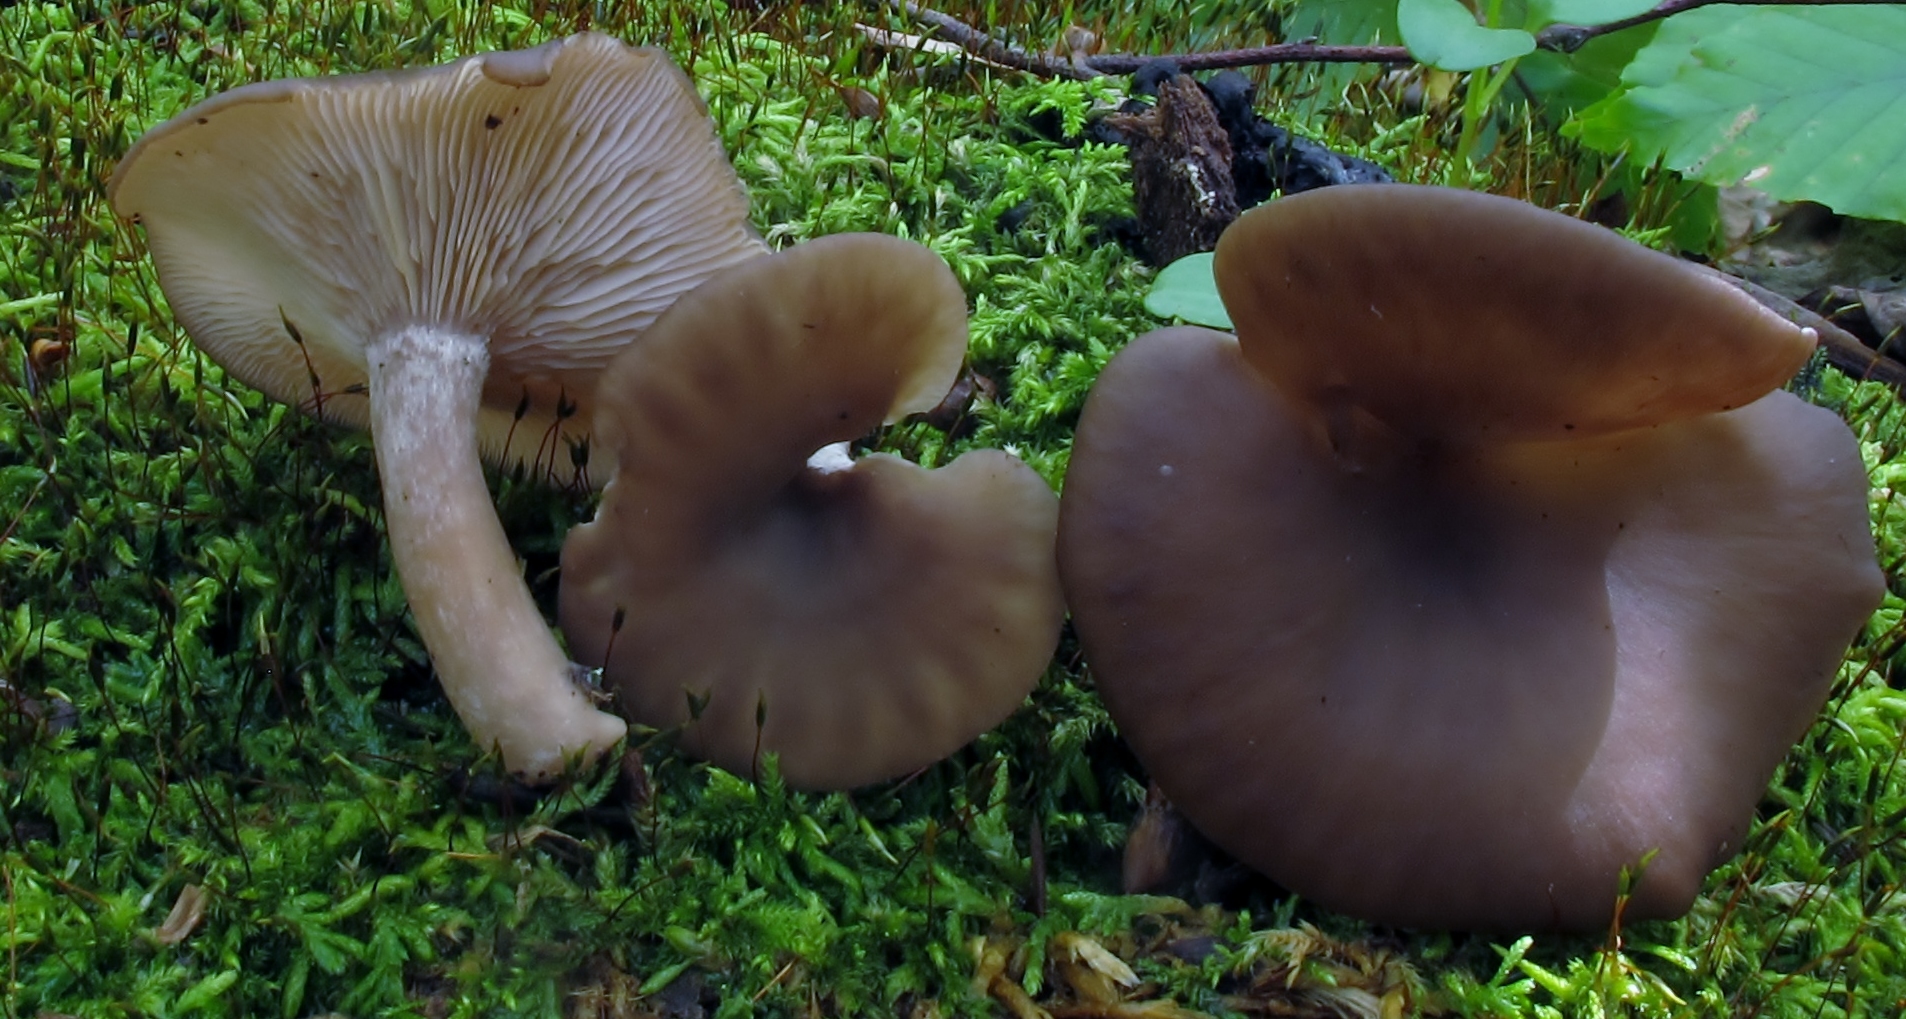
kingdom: Fungi
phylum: Basidiomycota
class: Agaricomycetes
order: Agaricales
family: Pseudoclitocybaceae
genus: Pseudoclitocybe
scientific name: Pseudoclitocybe cyathiformis
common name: Goblet
